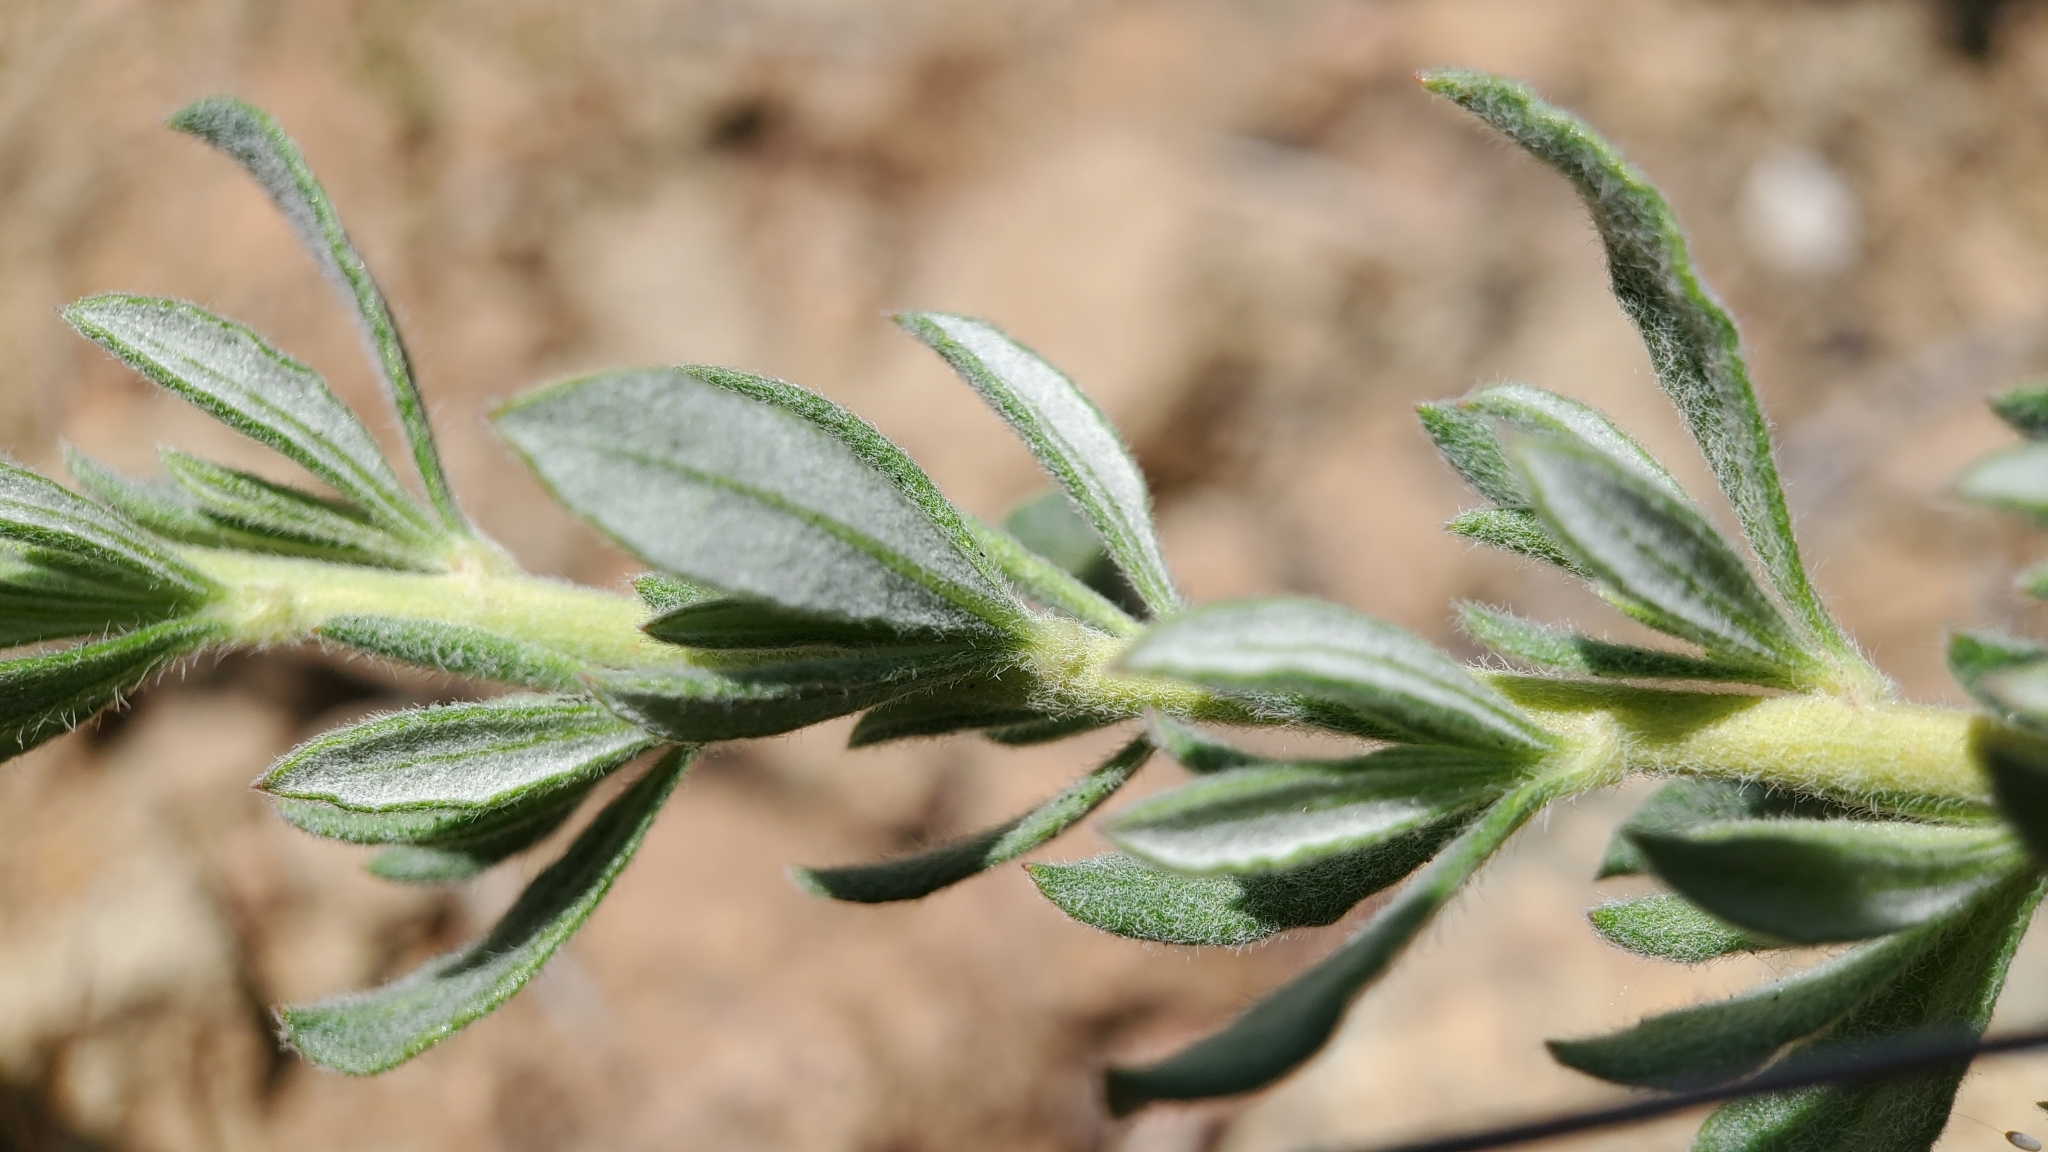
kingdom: Plantae
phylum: Tracheophyta
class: Magnoliopsida
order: Caryophyllales
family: Polygonaceae
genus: Eriogonum
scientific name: Eriogonum fasciculatum
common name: California wild buckwheat
